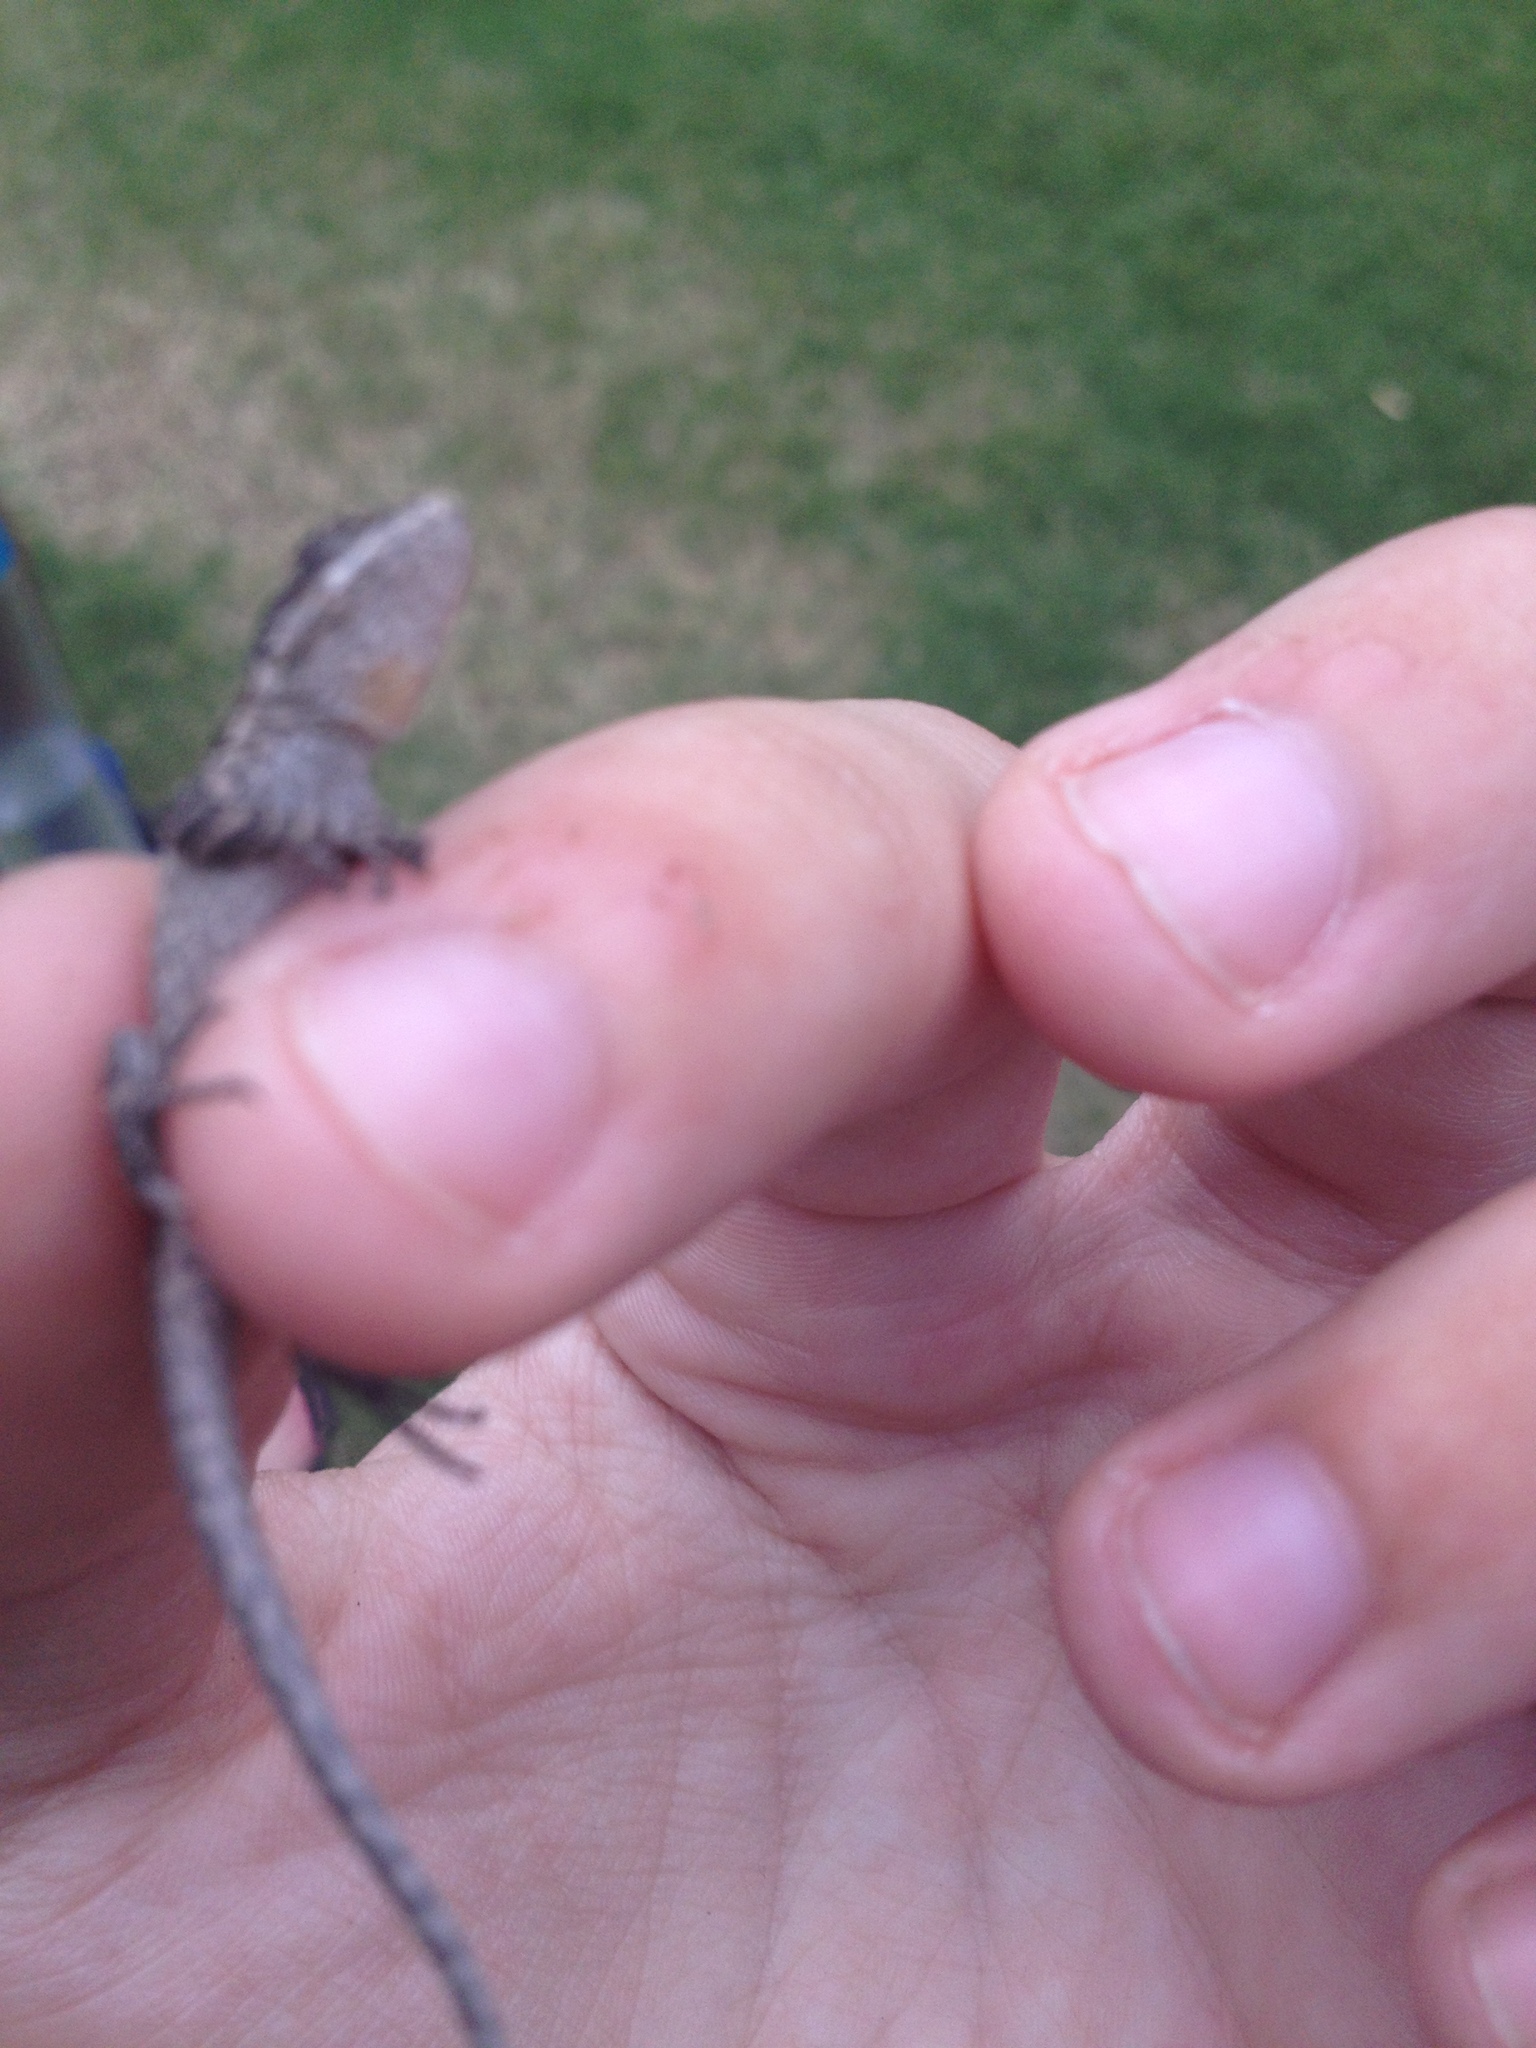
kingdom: Animalia
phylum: Chordata
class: Squamata
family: Phrynosomatidae
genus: Urosaurus
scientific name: Urosaurus ornatus
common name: Ornate tree lizard
